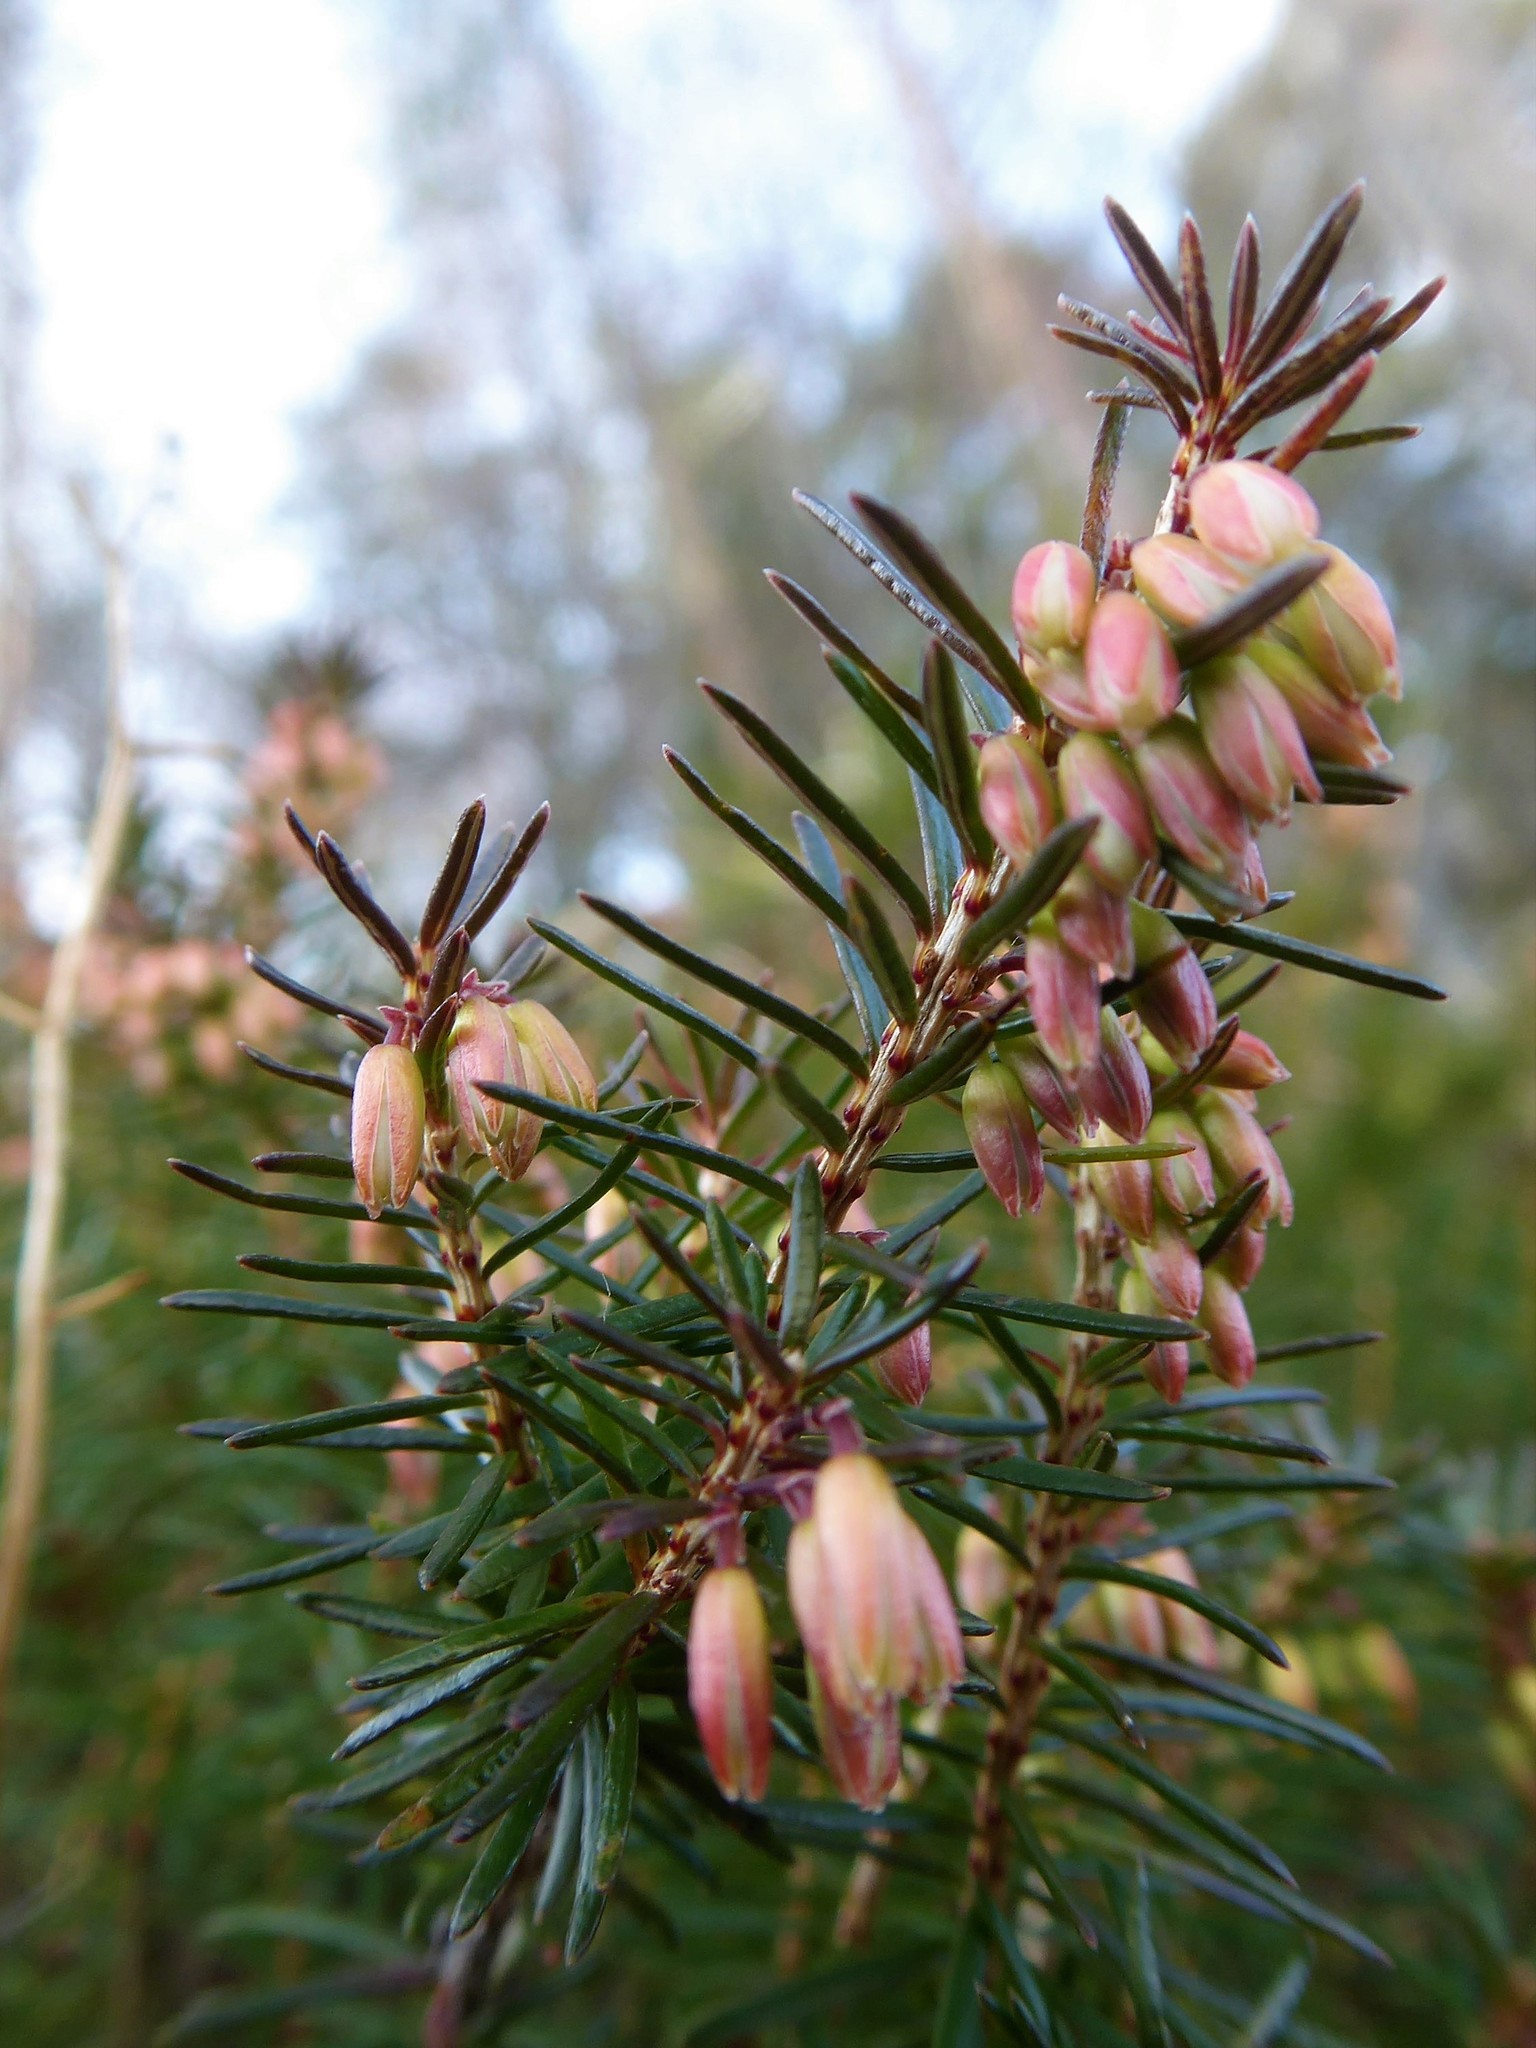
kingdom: Plantae
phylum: Tracheophyta
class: Magnoliopsida
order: Ericales
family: Ericaceae
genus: Erica
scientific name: Erica carnea
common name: Winter heath
